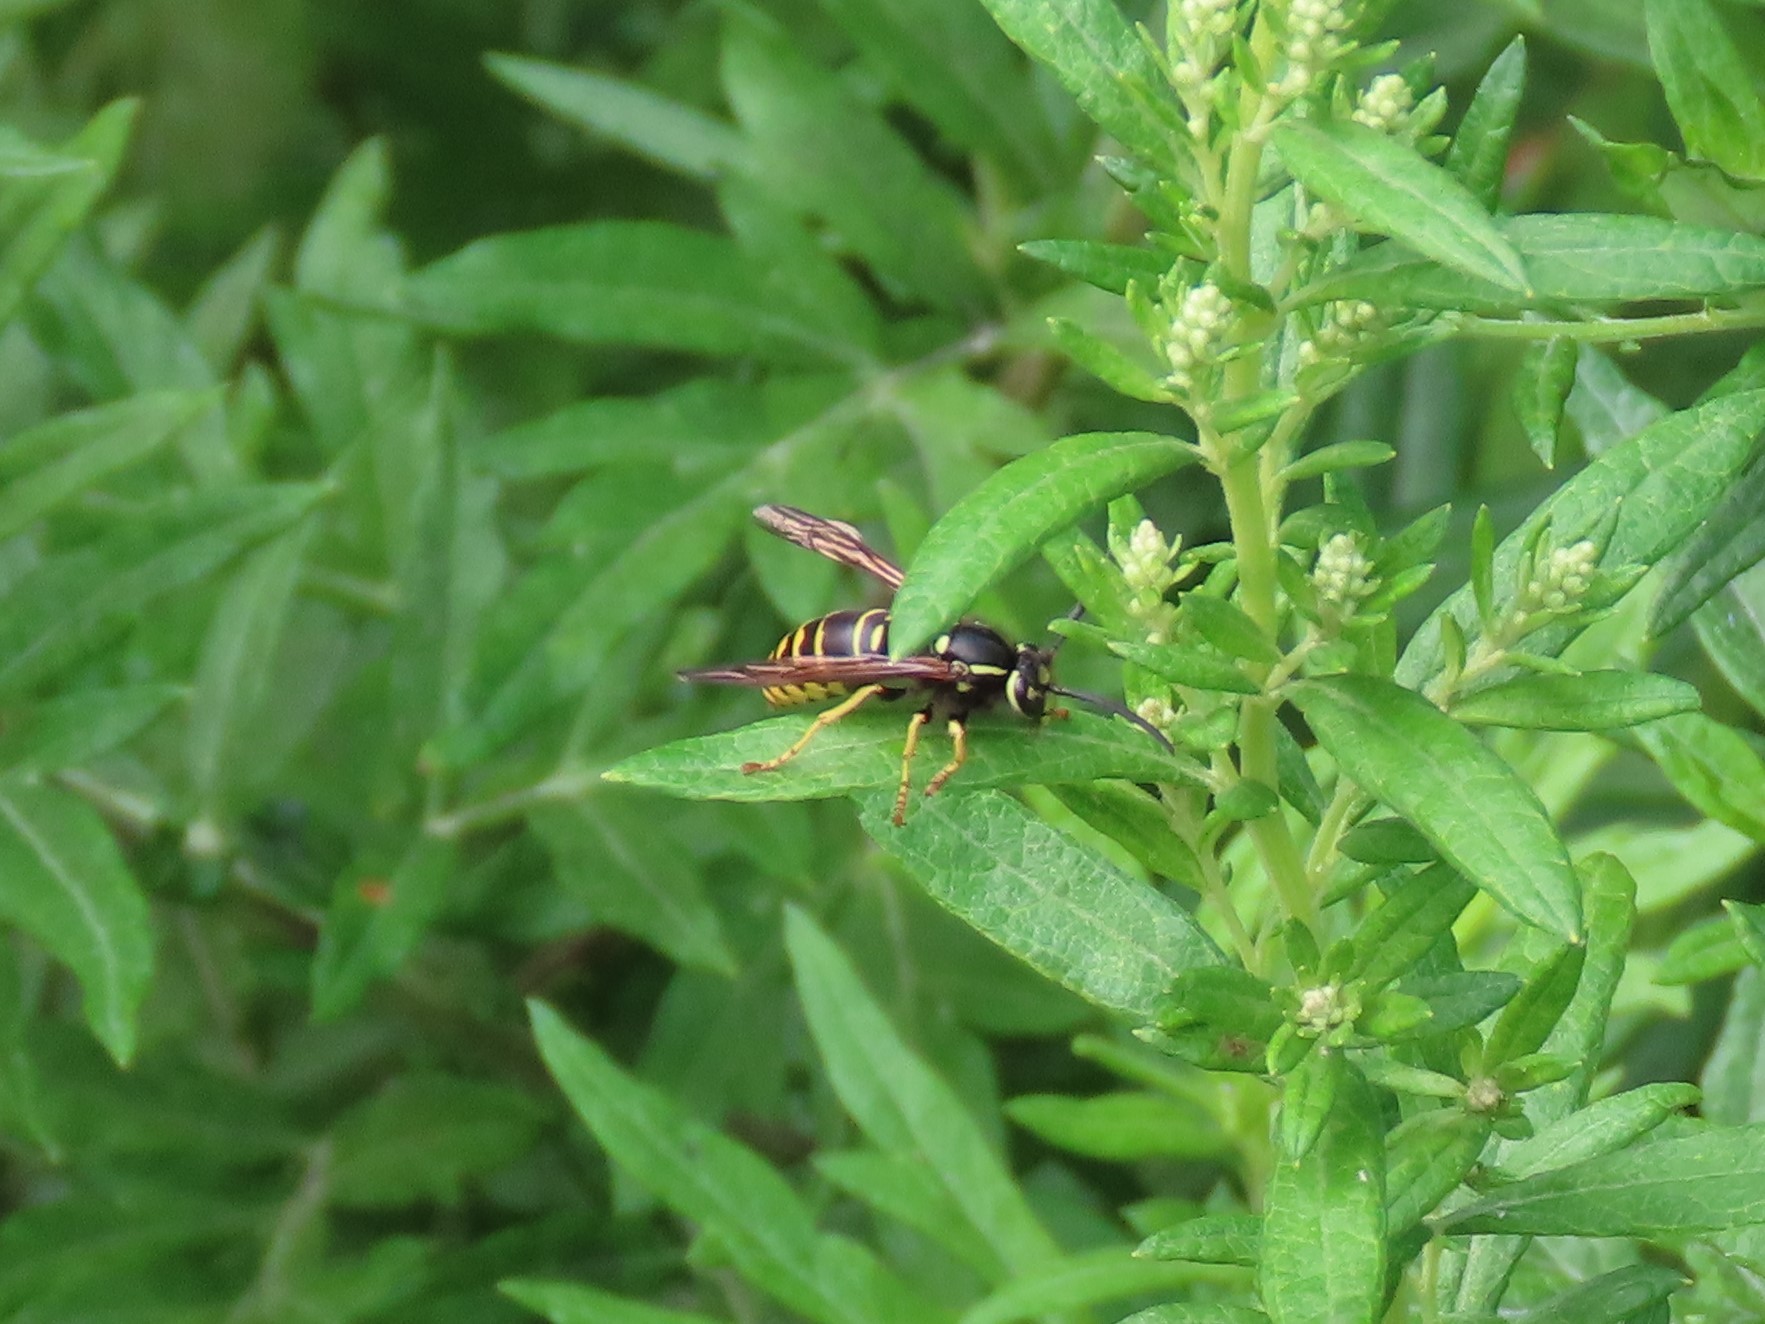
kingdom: Animalia
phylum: Arthropoda
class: Insecta
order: Hymenoptera
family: Vespidae
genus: Vespula
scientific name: Vespula vidua
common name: Widow yellowjacket
